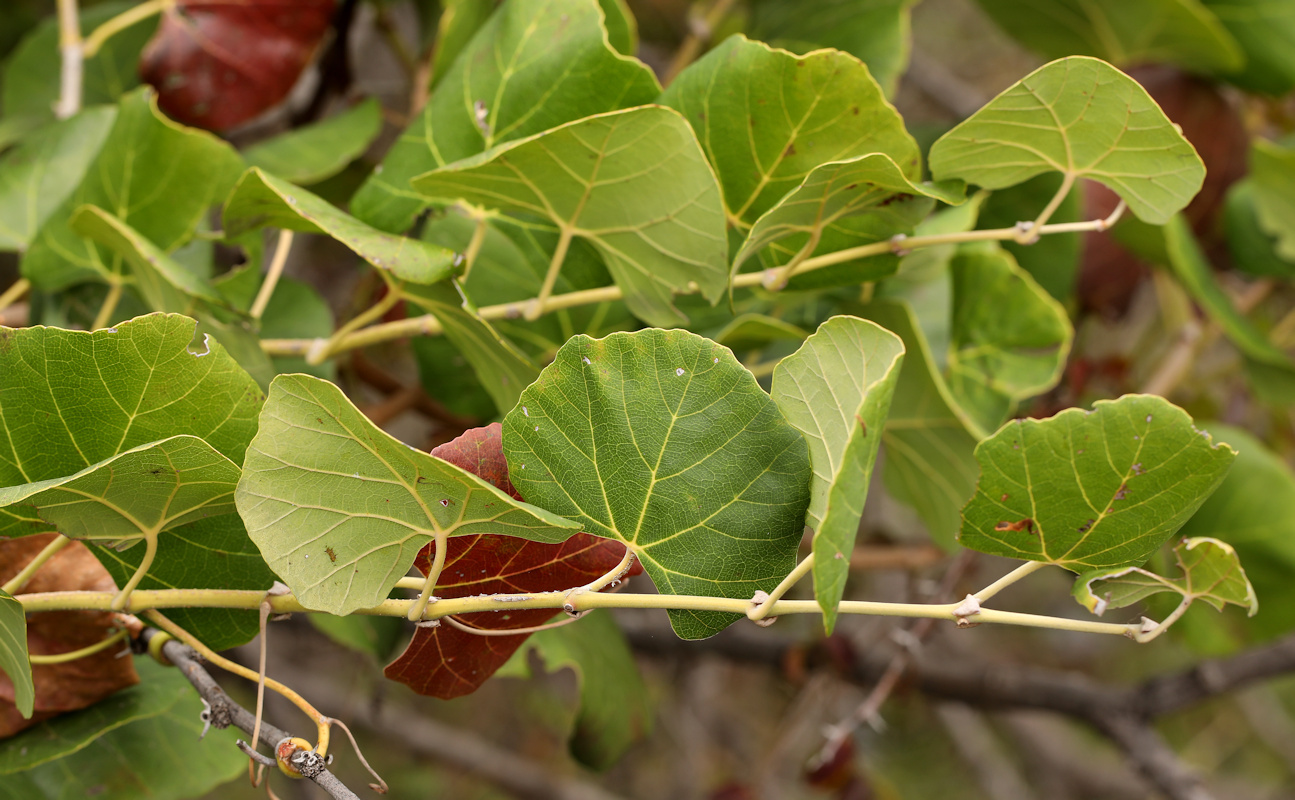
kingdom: Plantae
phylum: Tracheophyta
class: Magnoliopsida
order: Vitales
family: Vitaceae
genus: Rhoicissus
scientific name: Rhoicissus tomentosa
